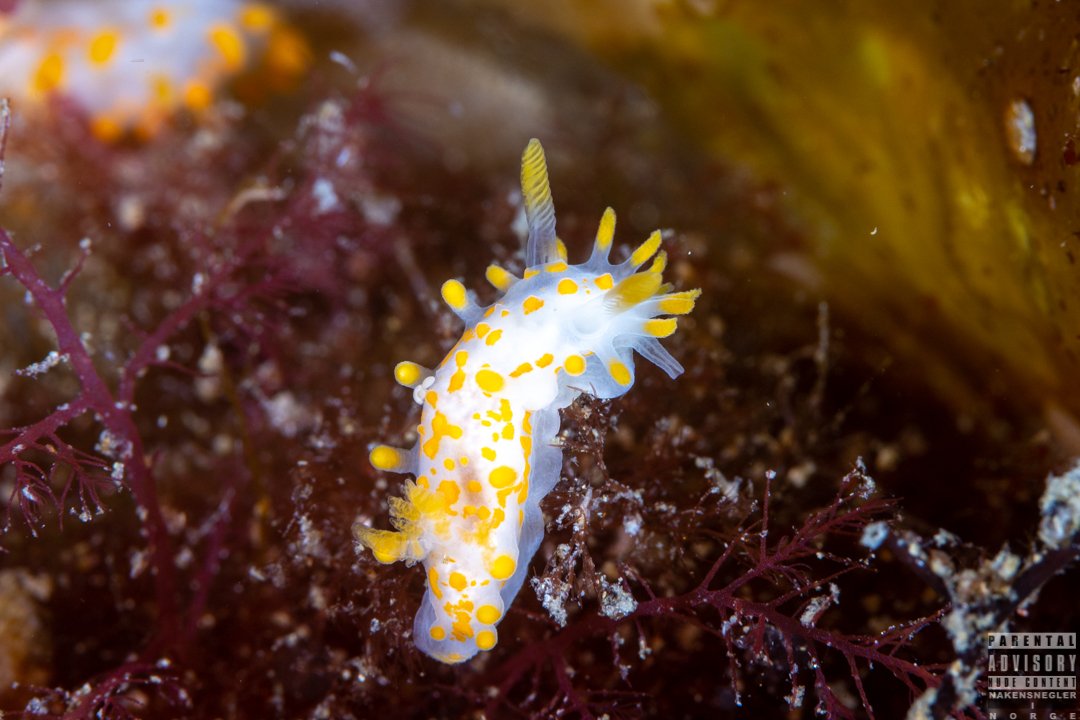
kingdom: Animalia
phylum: Mollusca
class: Gastropoda
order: Nudibranchia
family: Polyceridae
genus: Limacia
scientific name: Limacia clavigera
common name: Orange-clubbed sea slug
